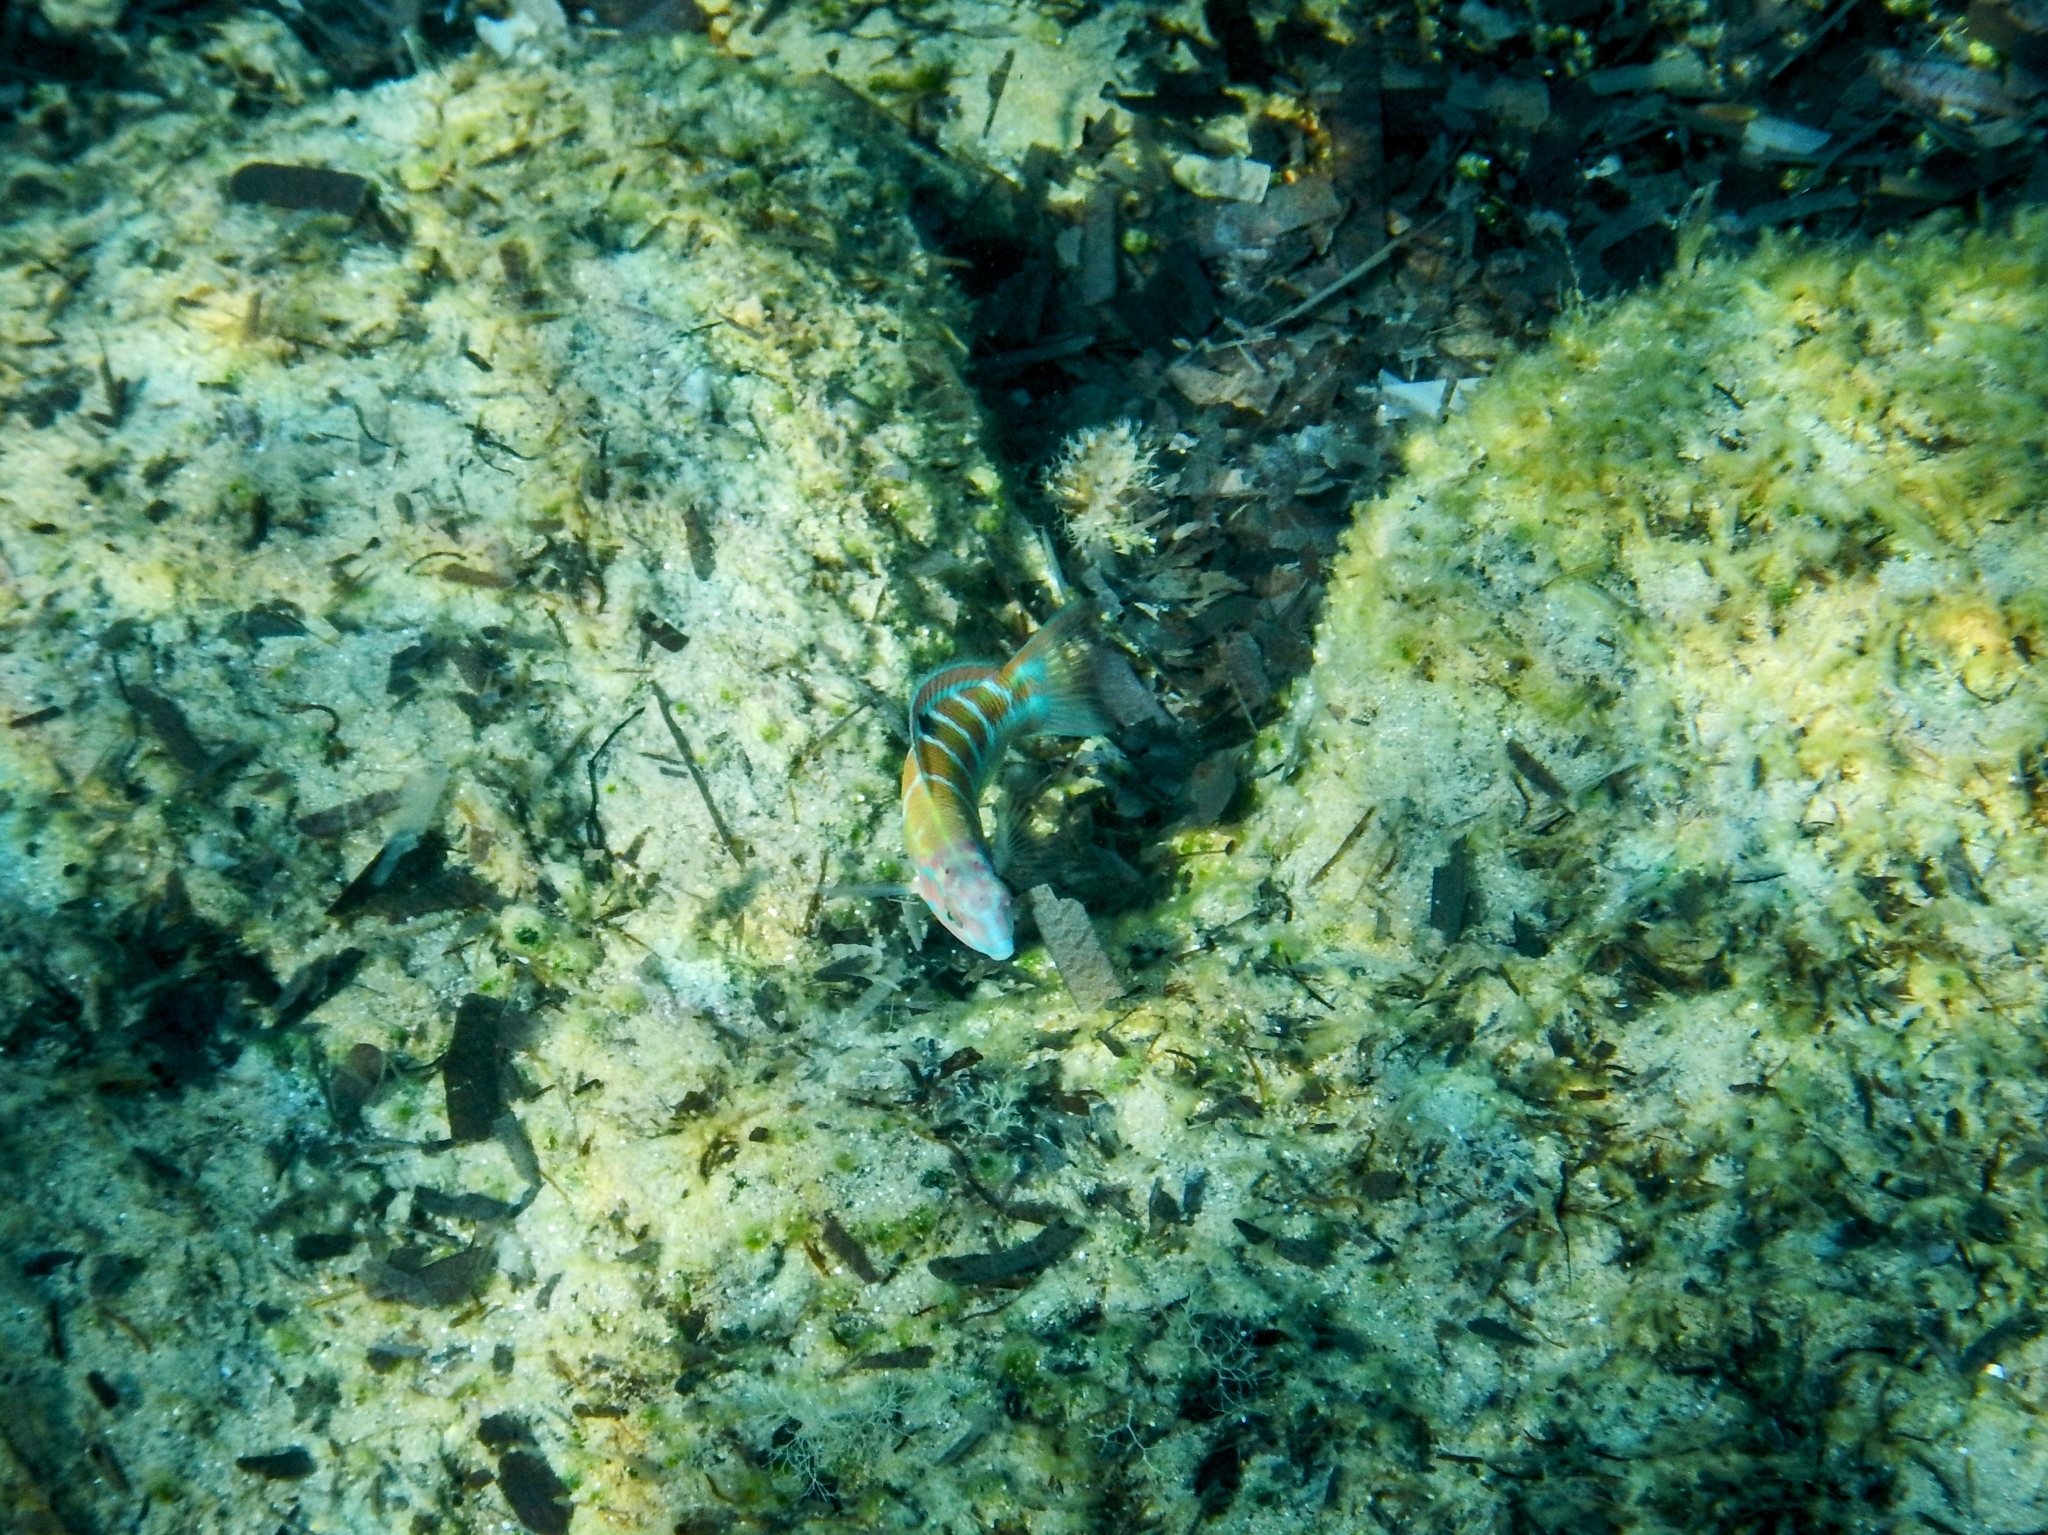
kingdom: Animalia
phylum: Chordata
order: Perciformes
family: Labridae
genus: Thalassoma
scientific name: Thalassoma pavo
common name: Ornate wrasse
